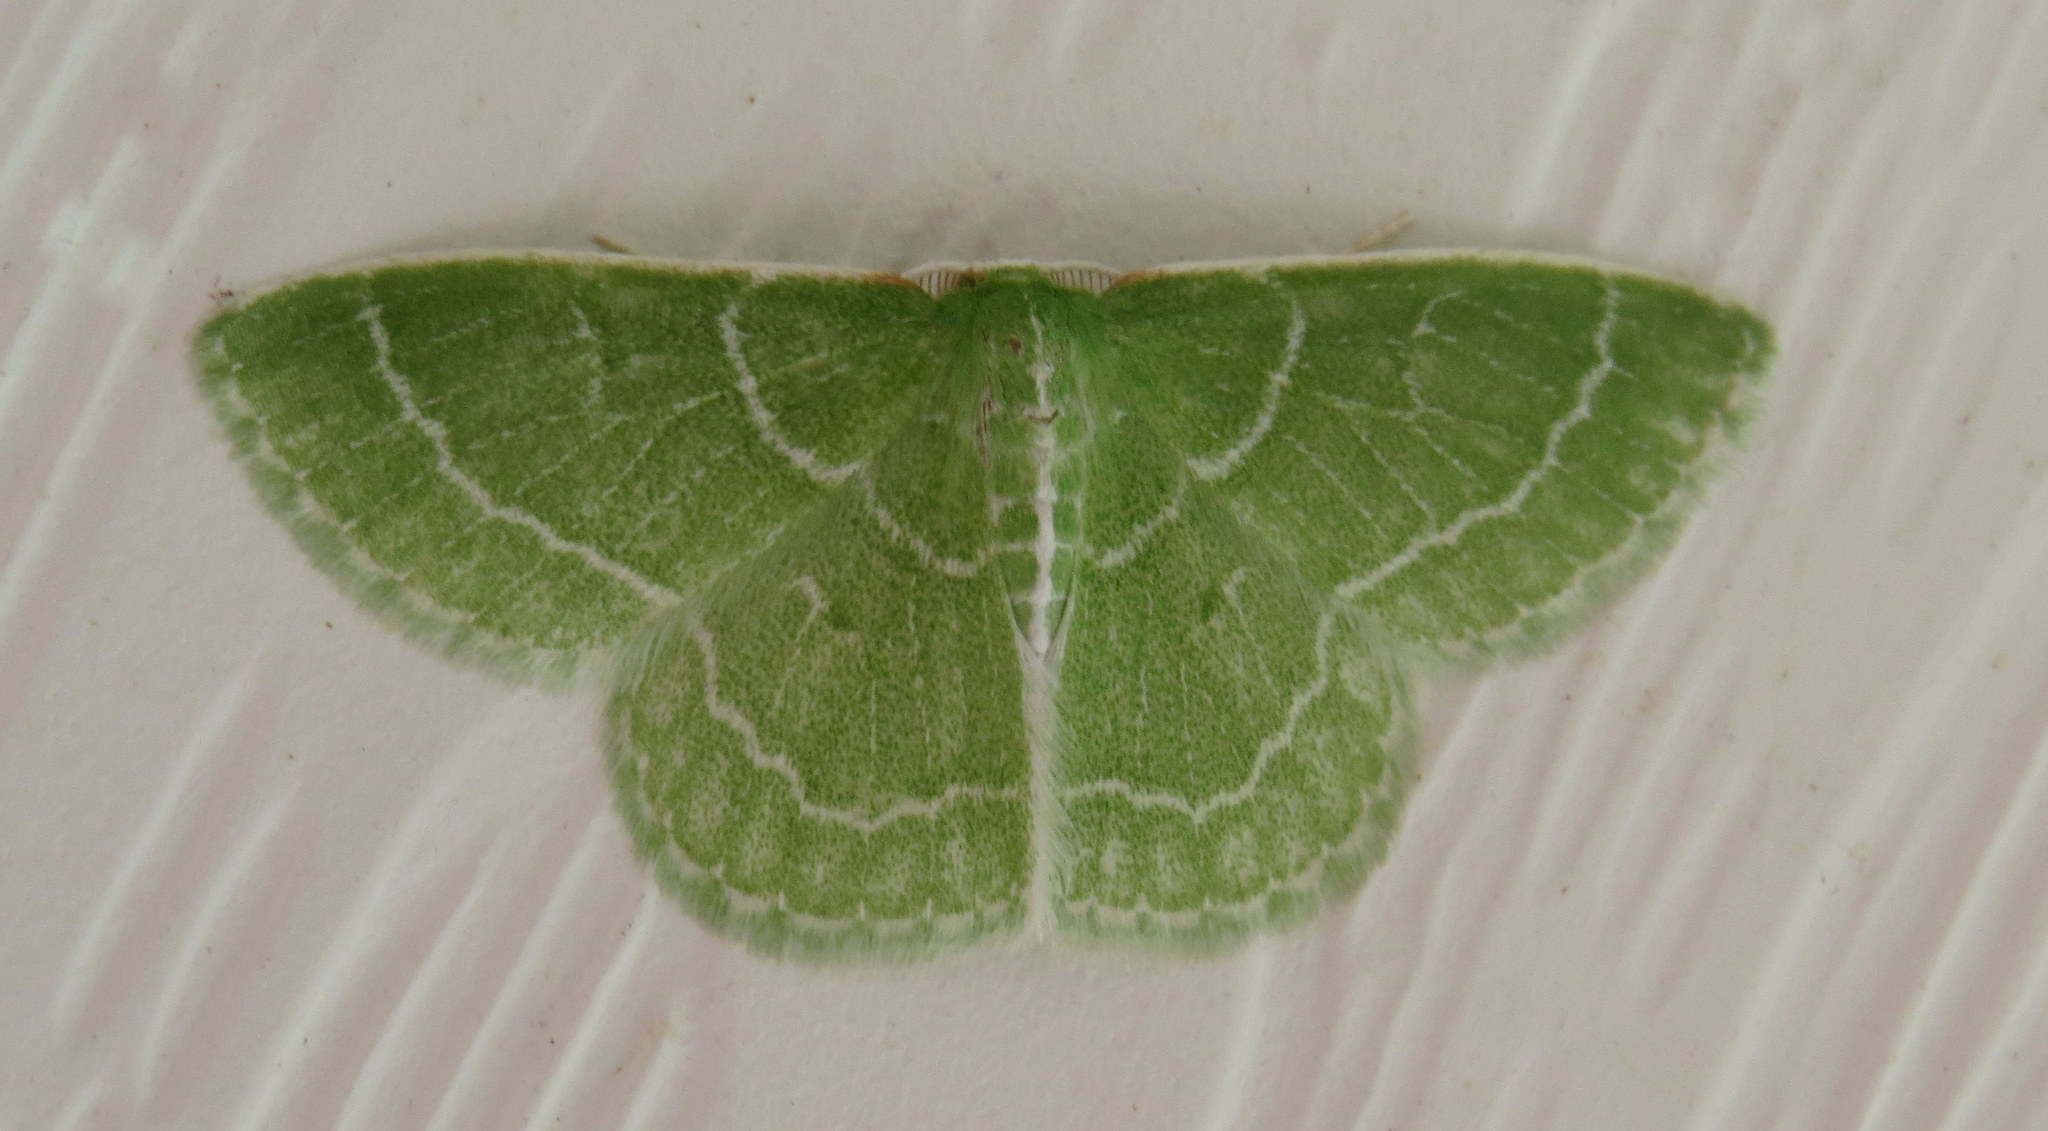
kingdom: Animalia
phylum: Arthropoda
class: Insecta
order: Lepidoptera
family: Geometridae
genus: Synchlora
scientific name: Synchlora aerata
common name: Wavy-lined emerald
